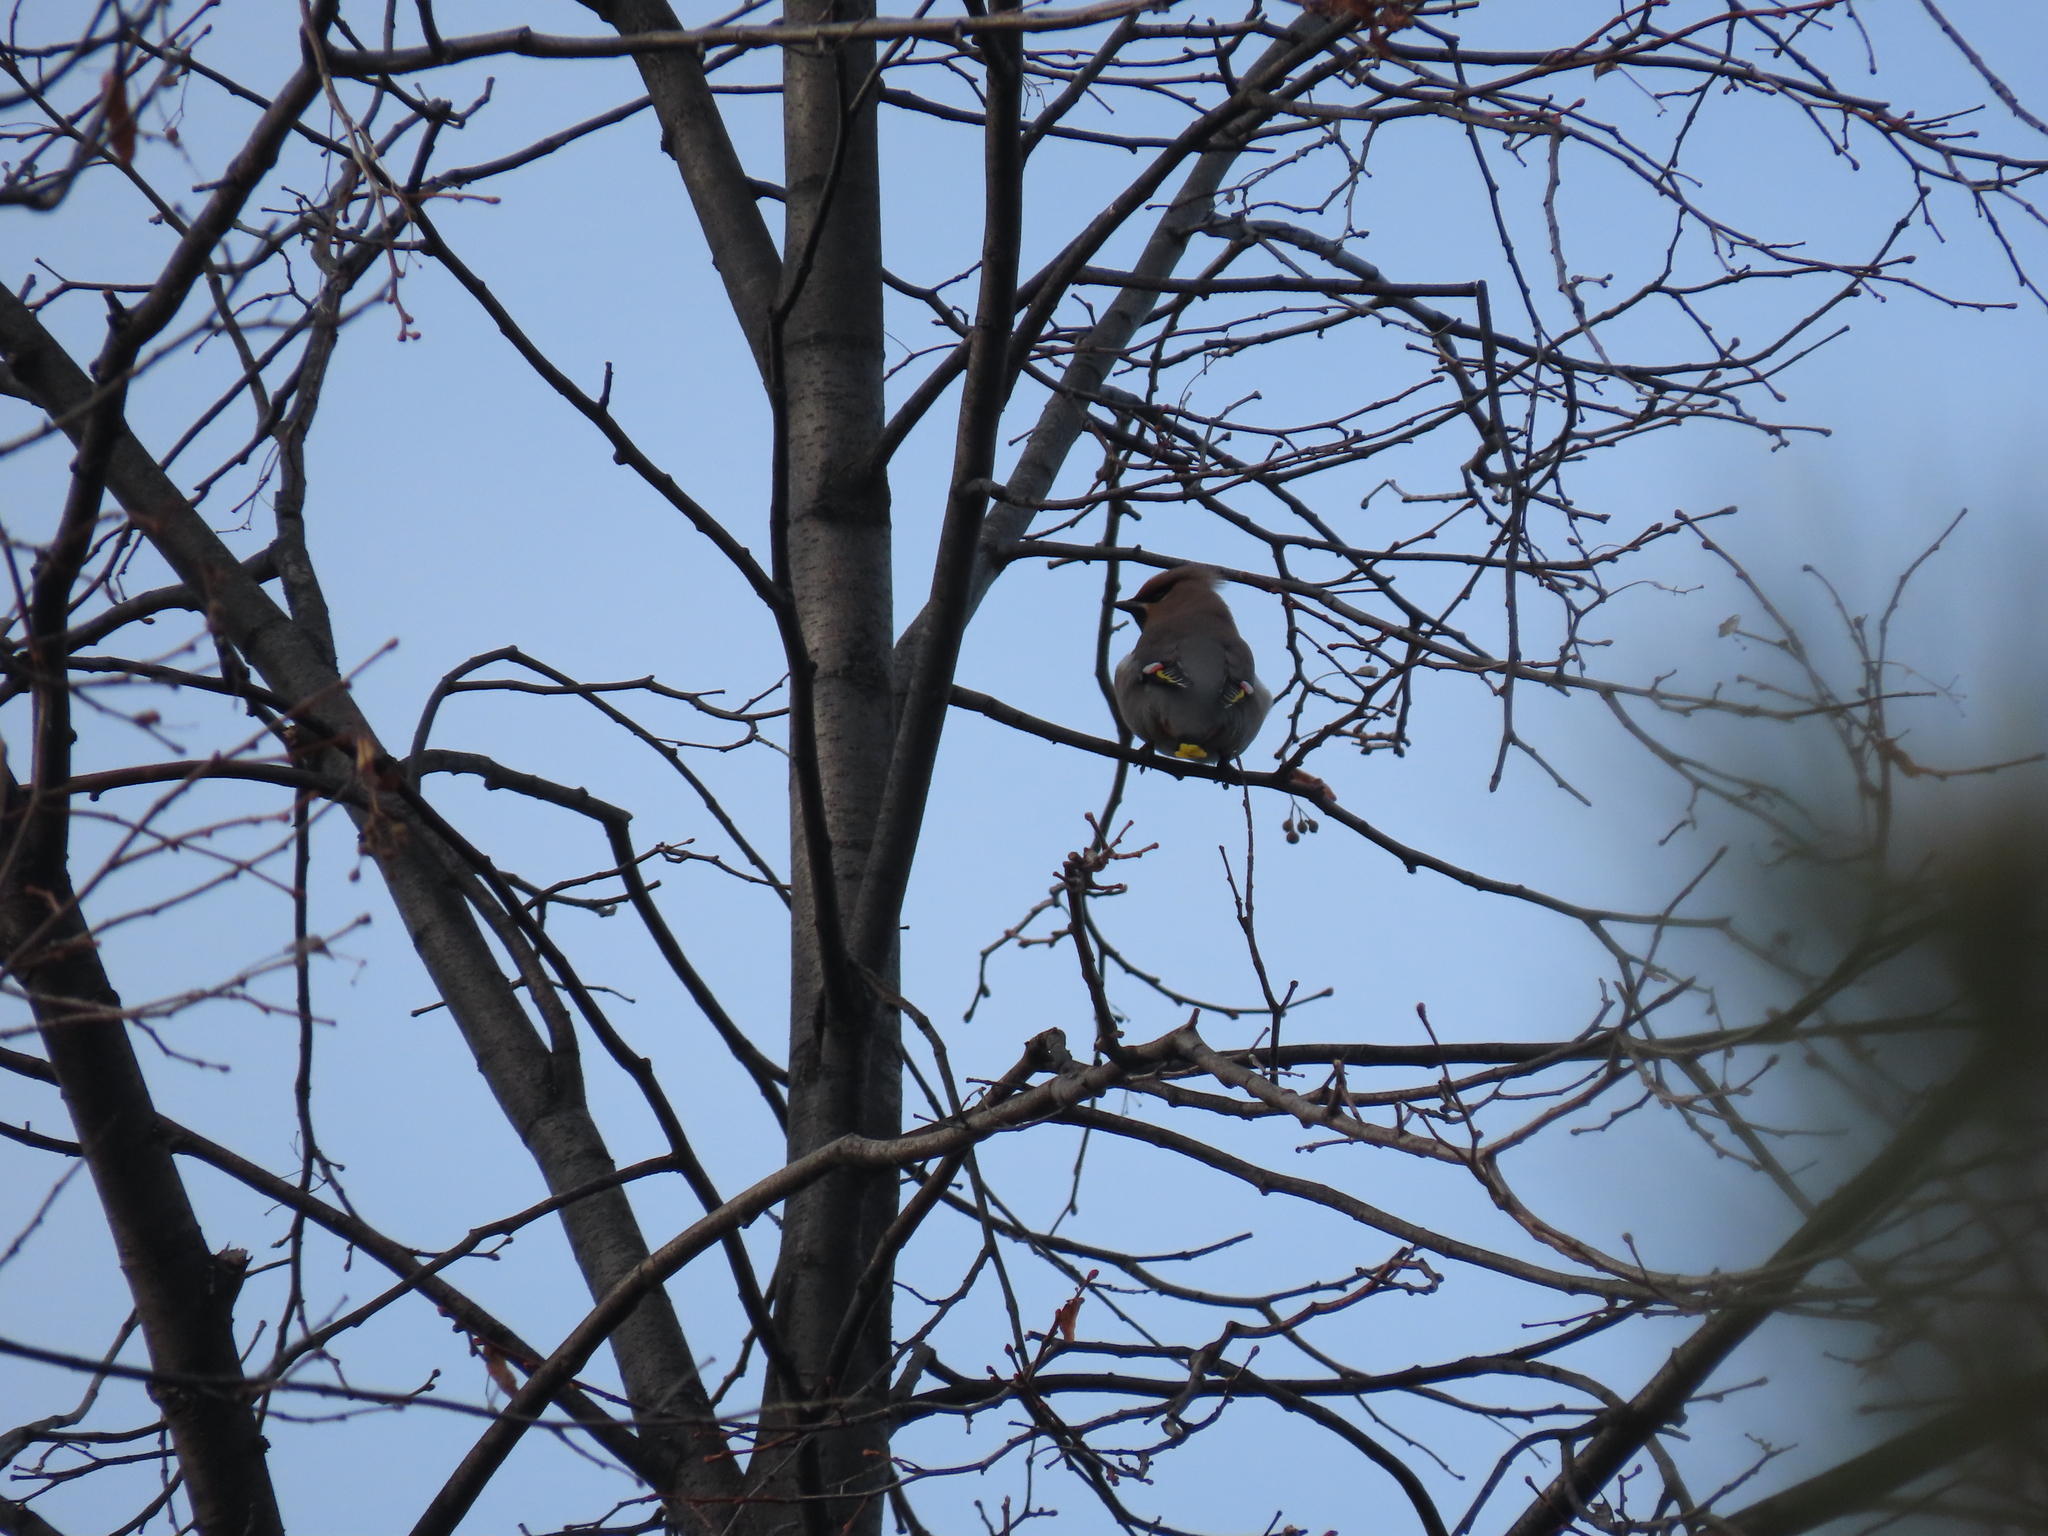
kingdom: Animalia
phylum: Chordata
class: Aves
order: Passeriformes
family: Bombycillidae
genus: Bombycilla
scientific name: Bombycilla garrulus
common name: Bohemian waxwing
